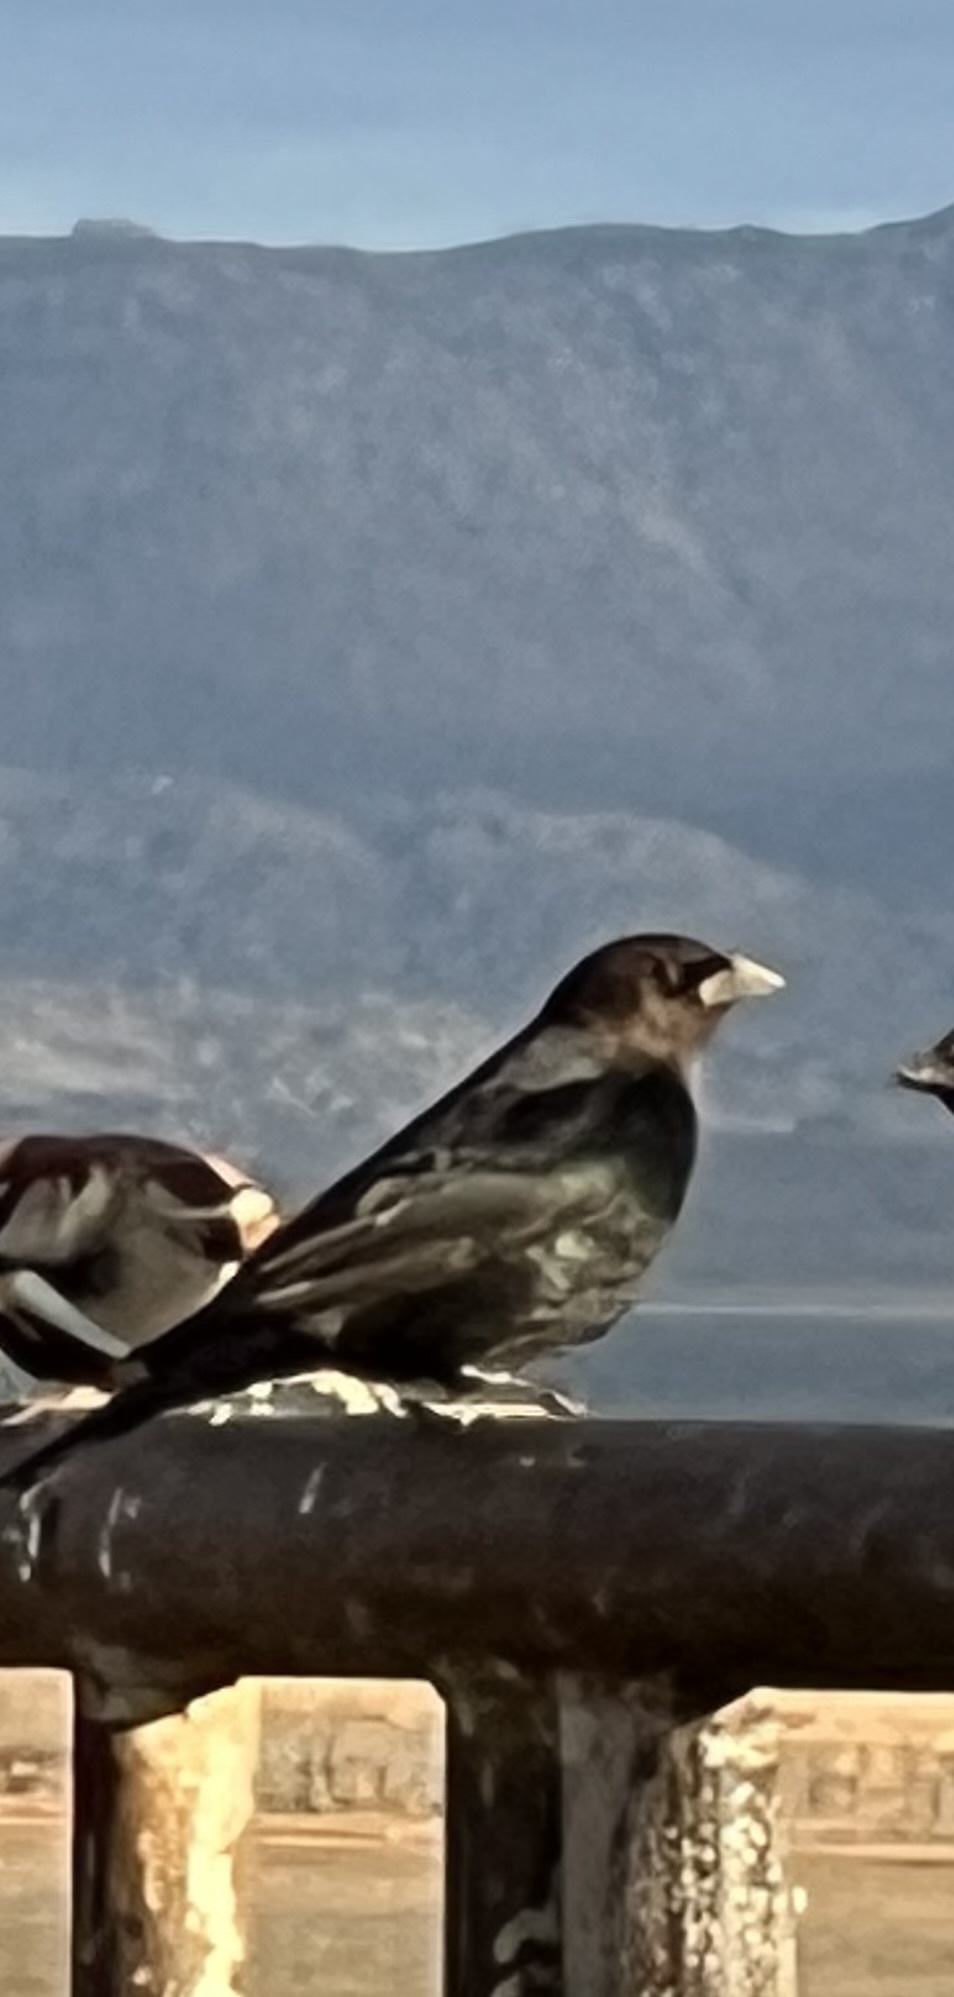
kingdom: Animalia
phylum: Chordata
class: Aves
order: Passeriformes
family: Icteridae
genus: Molothrus
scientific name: Molothrus ater
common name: Brown-headed cowbird
